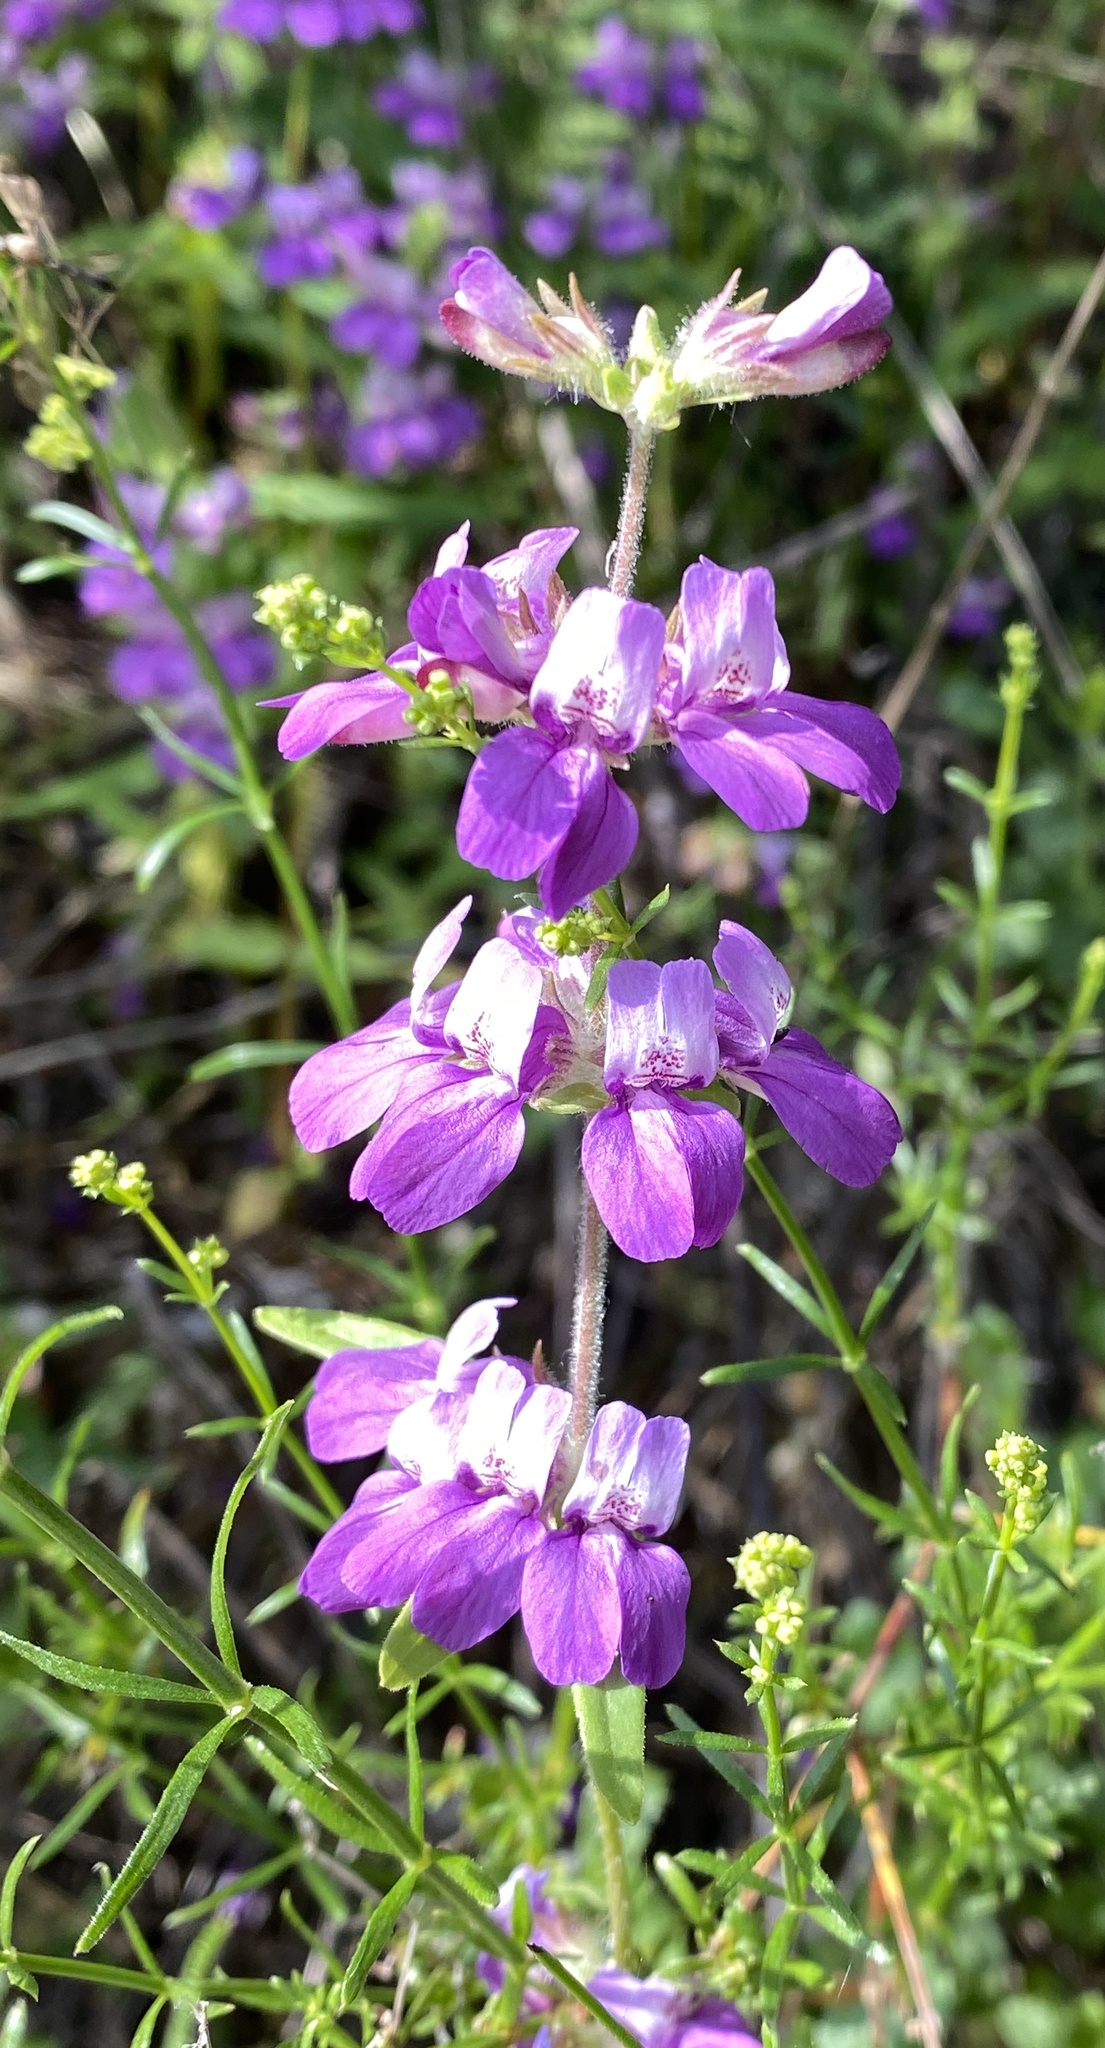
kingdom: Plantae
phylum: Tracheophyta
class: Magnoliopsida
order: Lamiales
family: Plantaginaceae
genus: Collinsia
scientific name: Collinsia heterophylla
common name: Chinese-houses
